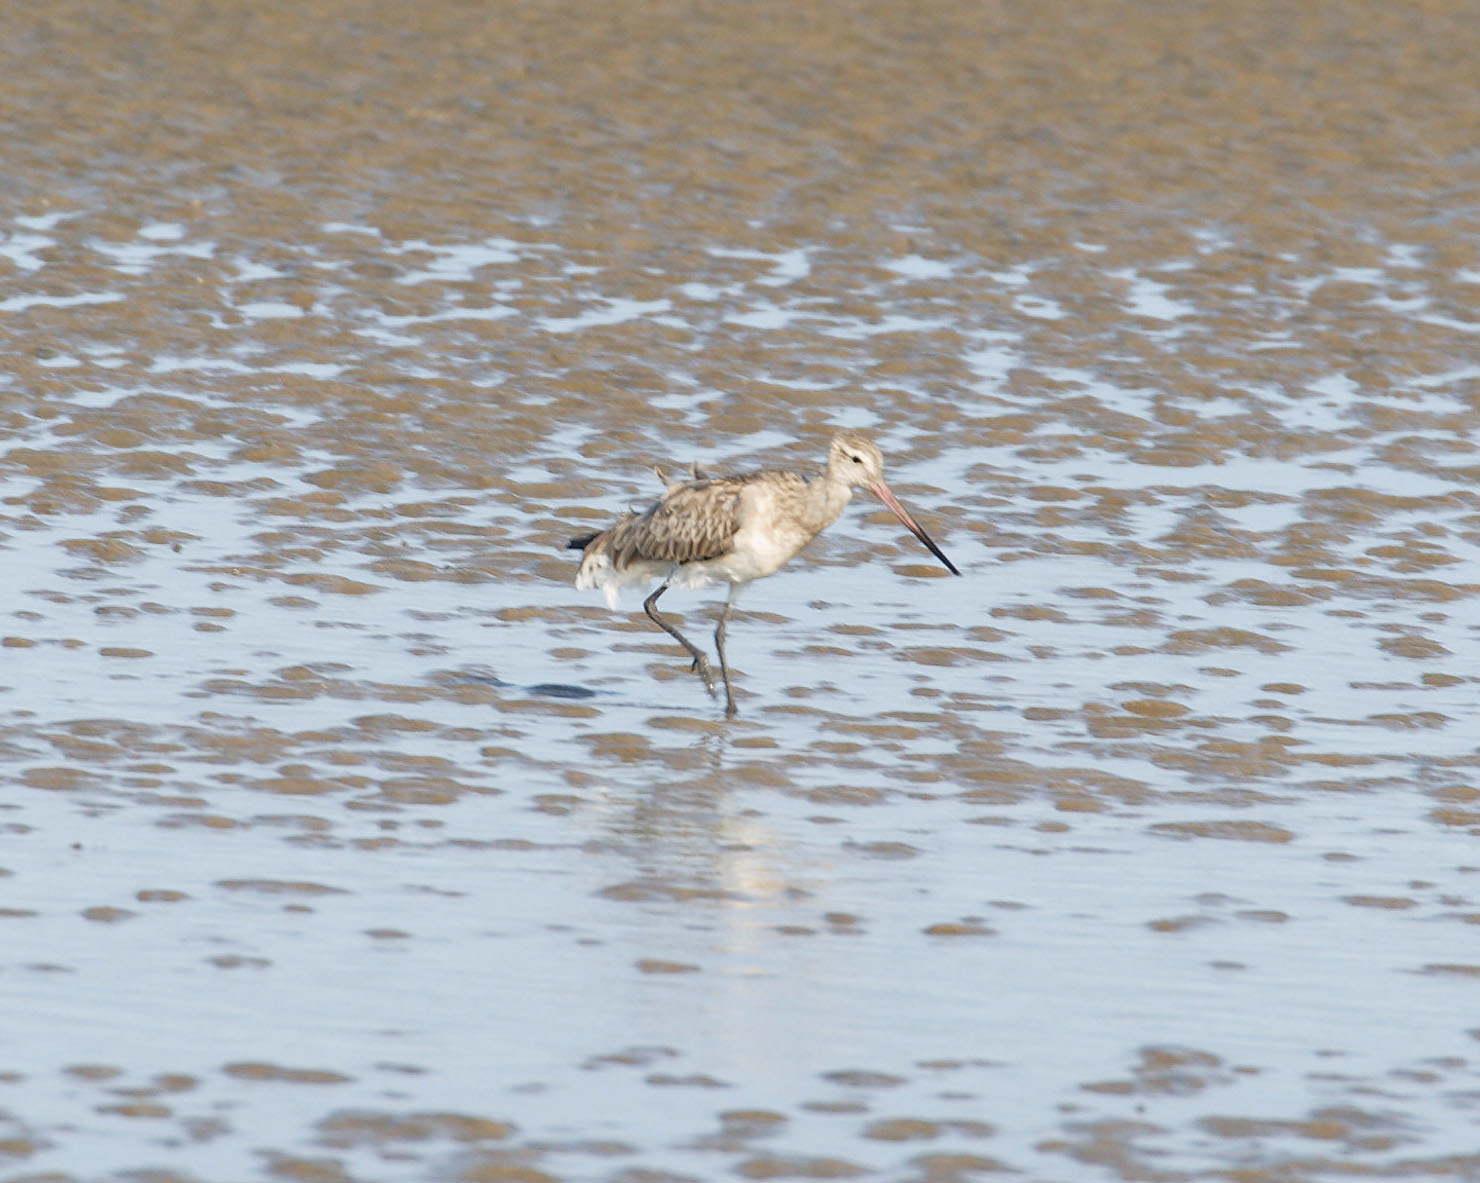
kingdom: Animalia
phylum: Chordata
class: Aves
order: Charadriiformes
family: Scolopacidae
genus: Limosa
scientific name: Limosa lapponica
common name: Bar-tailed godwit
